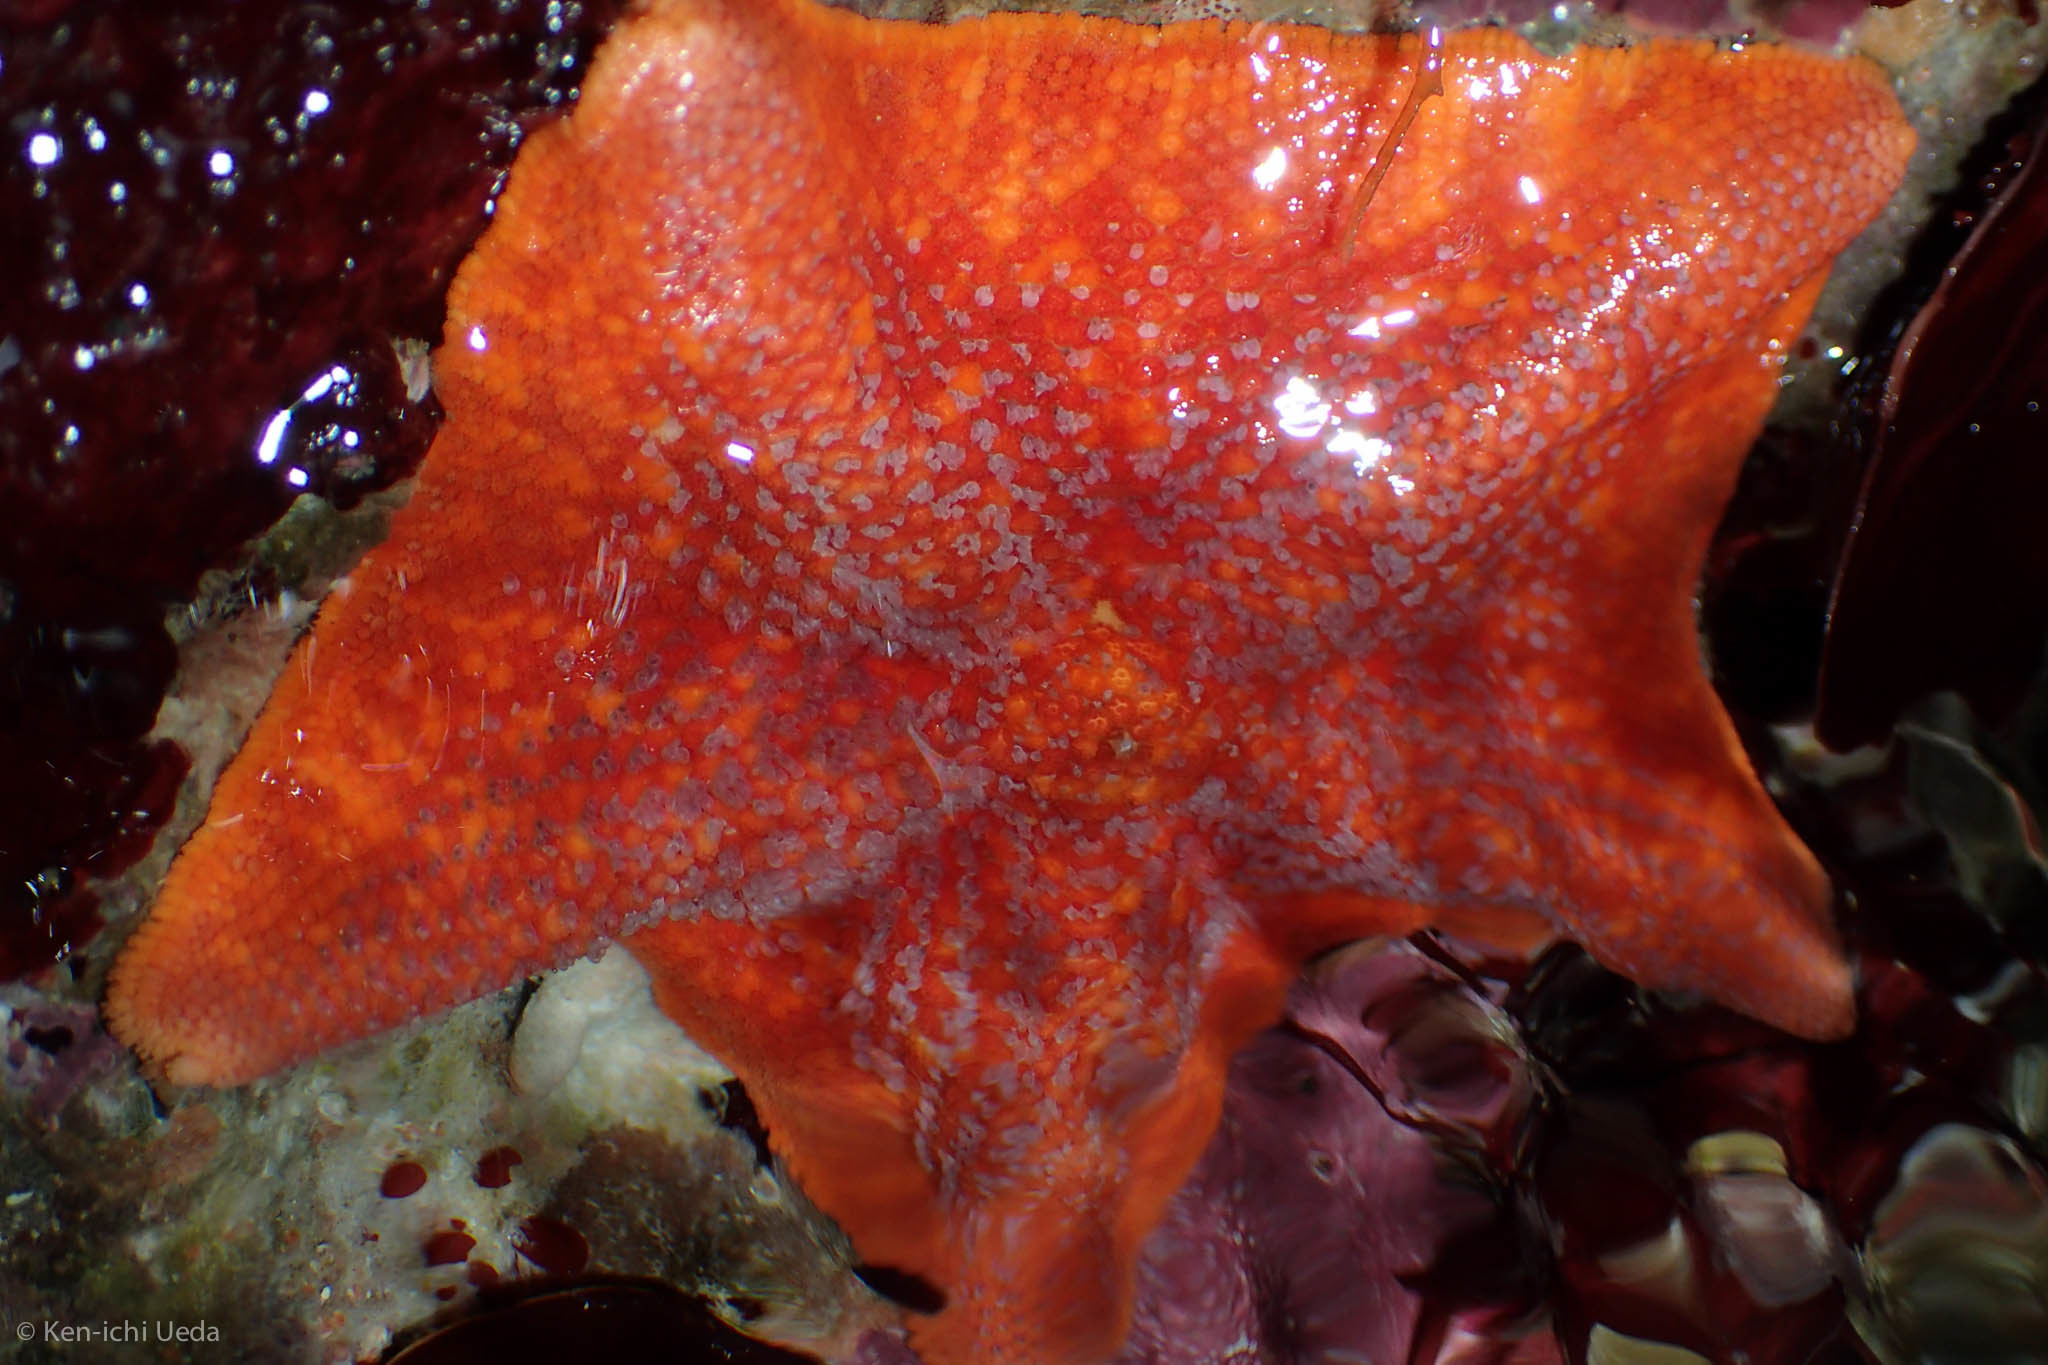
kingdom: Animalia
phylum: Echinodermata
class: Asteroidea
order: Valvatida
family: Asterinidae
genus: Patiria
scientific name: Patiria miniata
